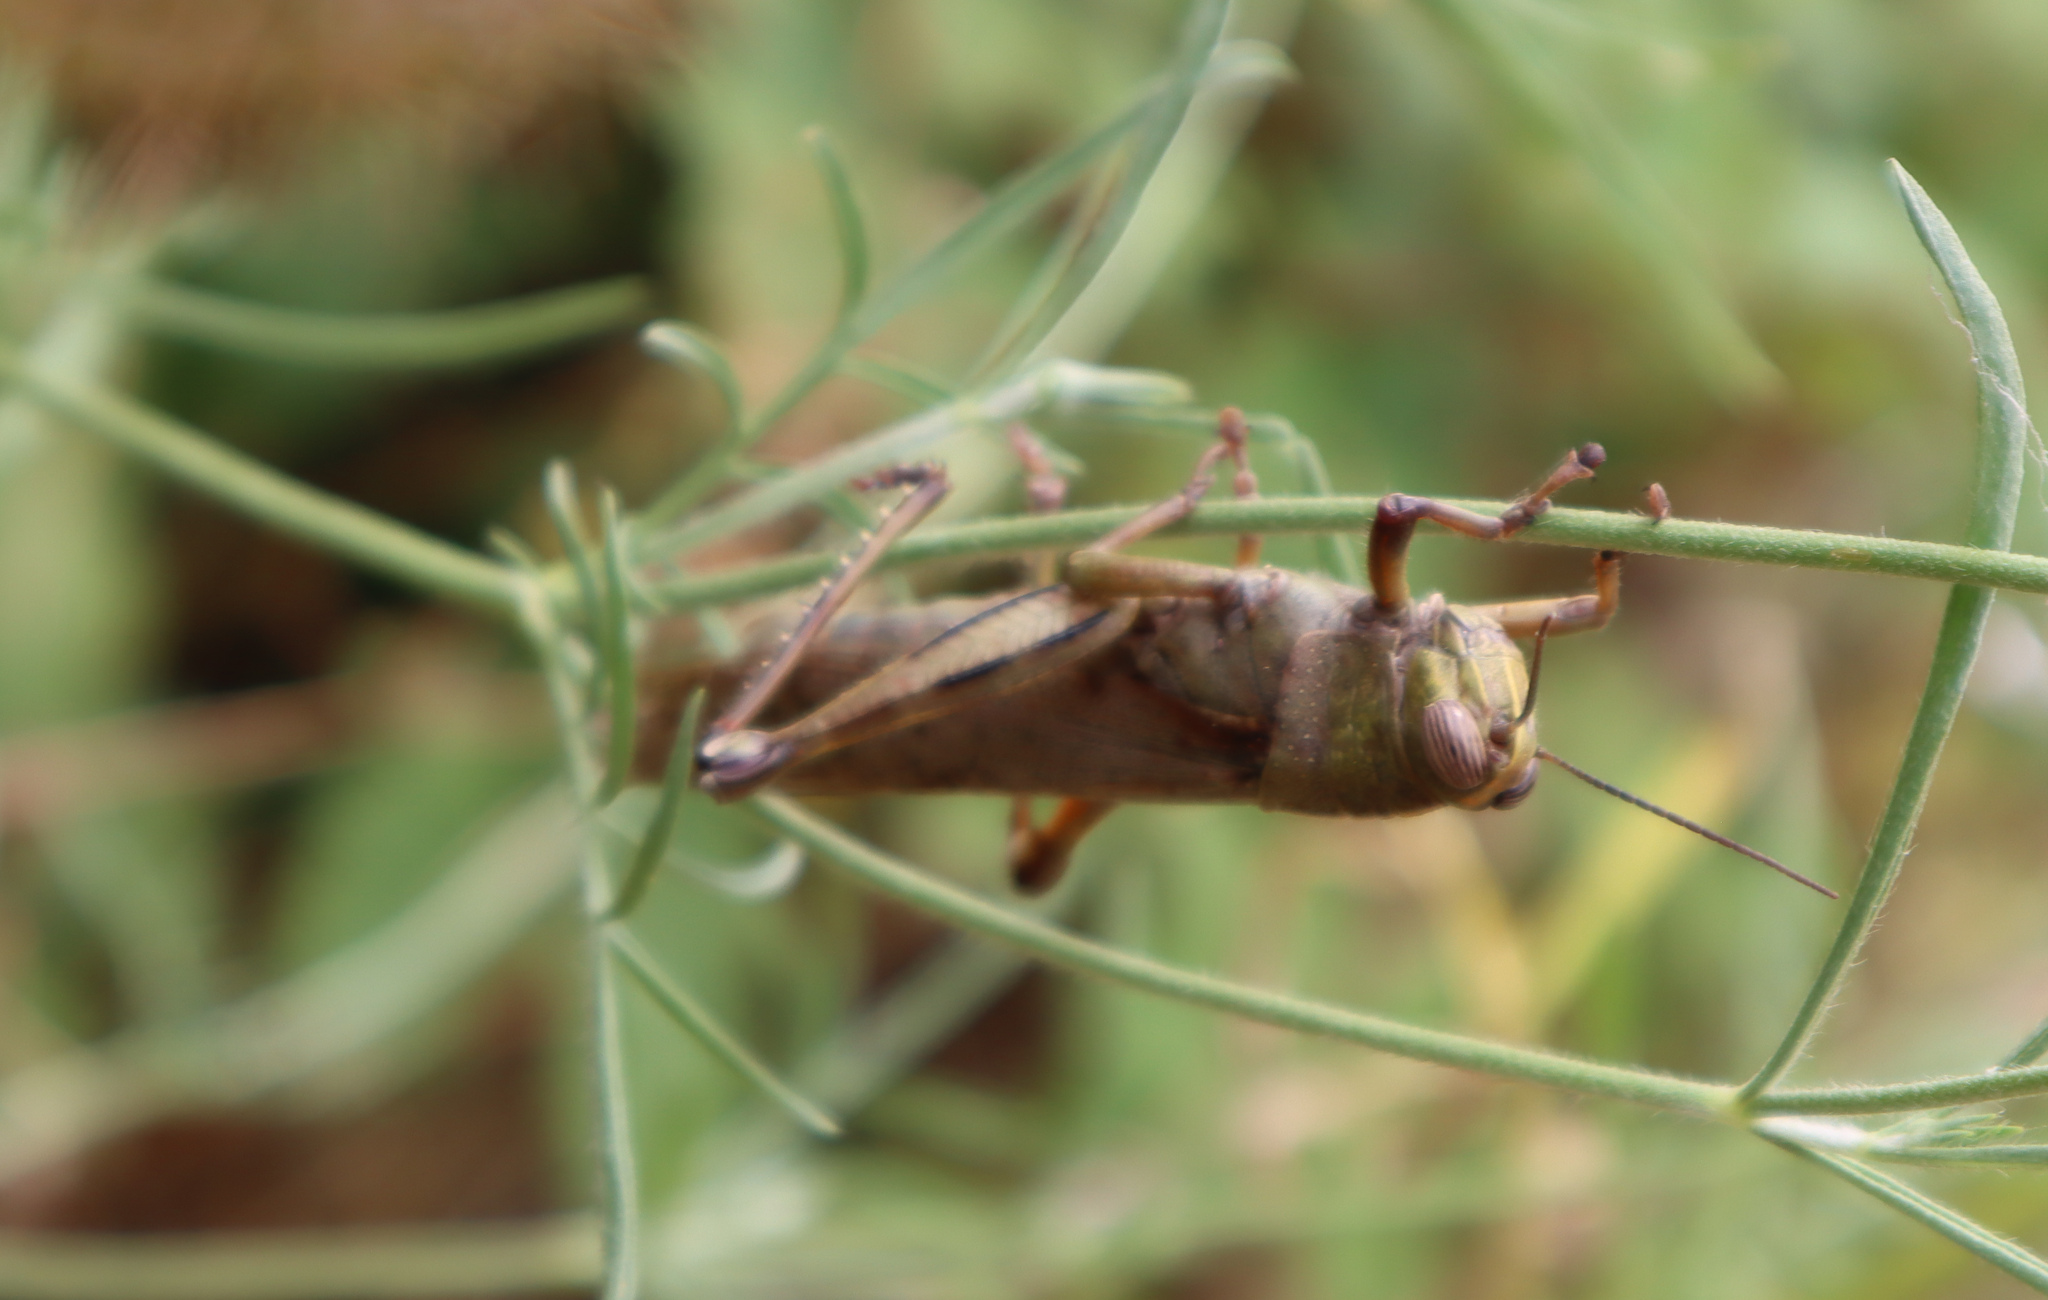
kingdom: Animalia
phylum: Arthropoda
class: Insecta
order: Orthoptera
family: Acrididae
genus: Anacridium
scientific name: Anacridium aegyptium
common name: Egyptian grasshopper
